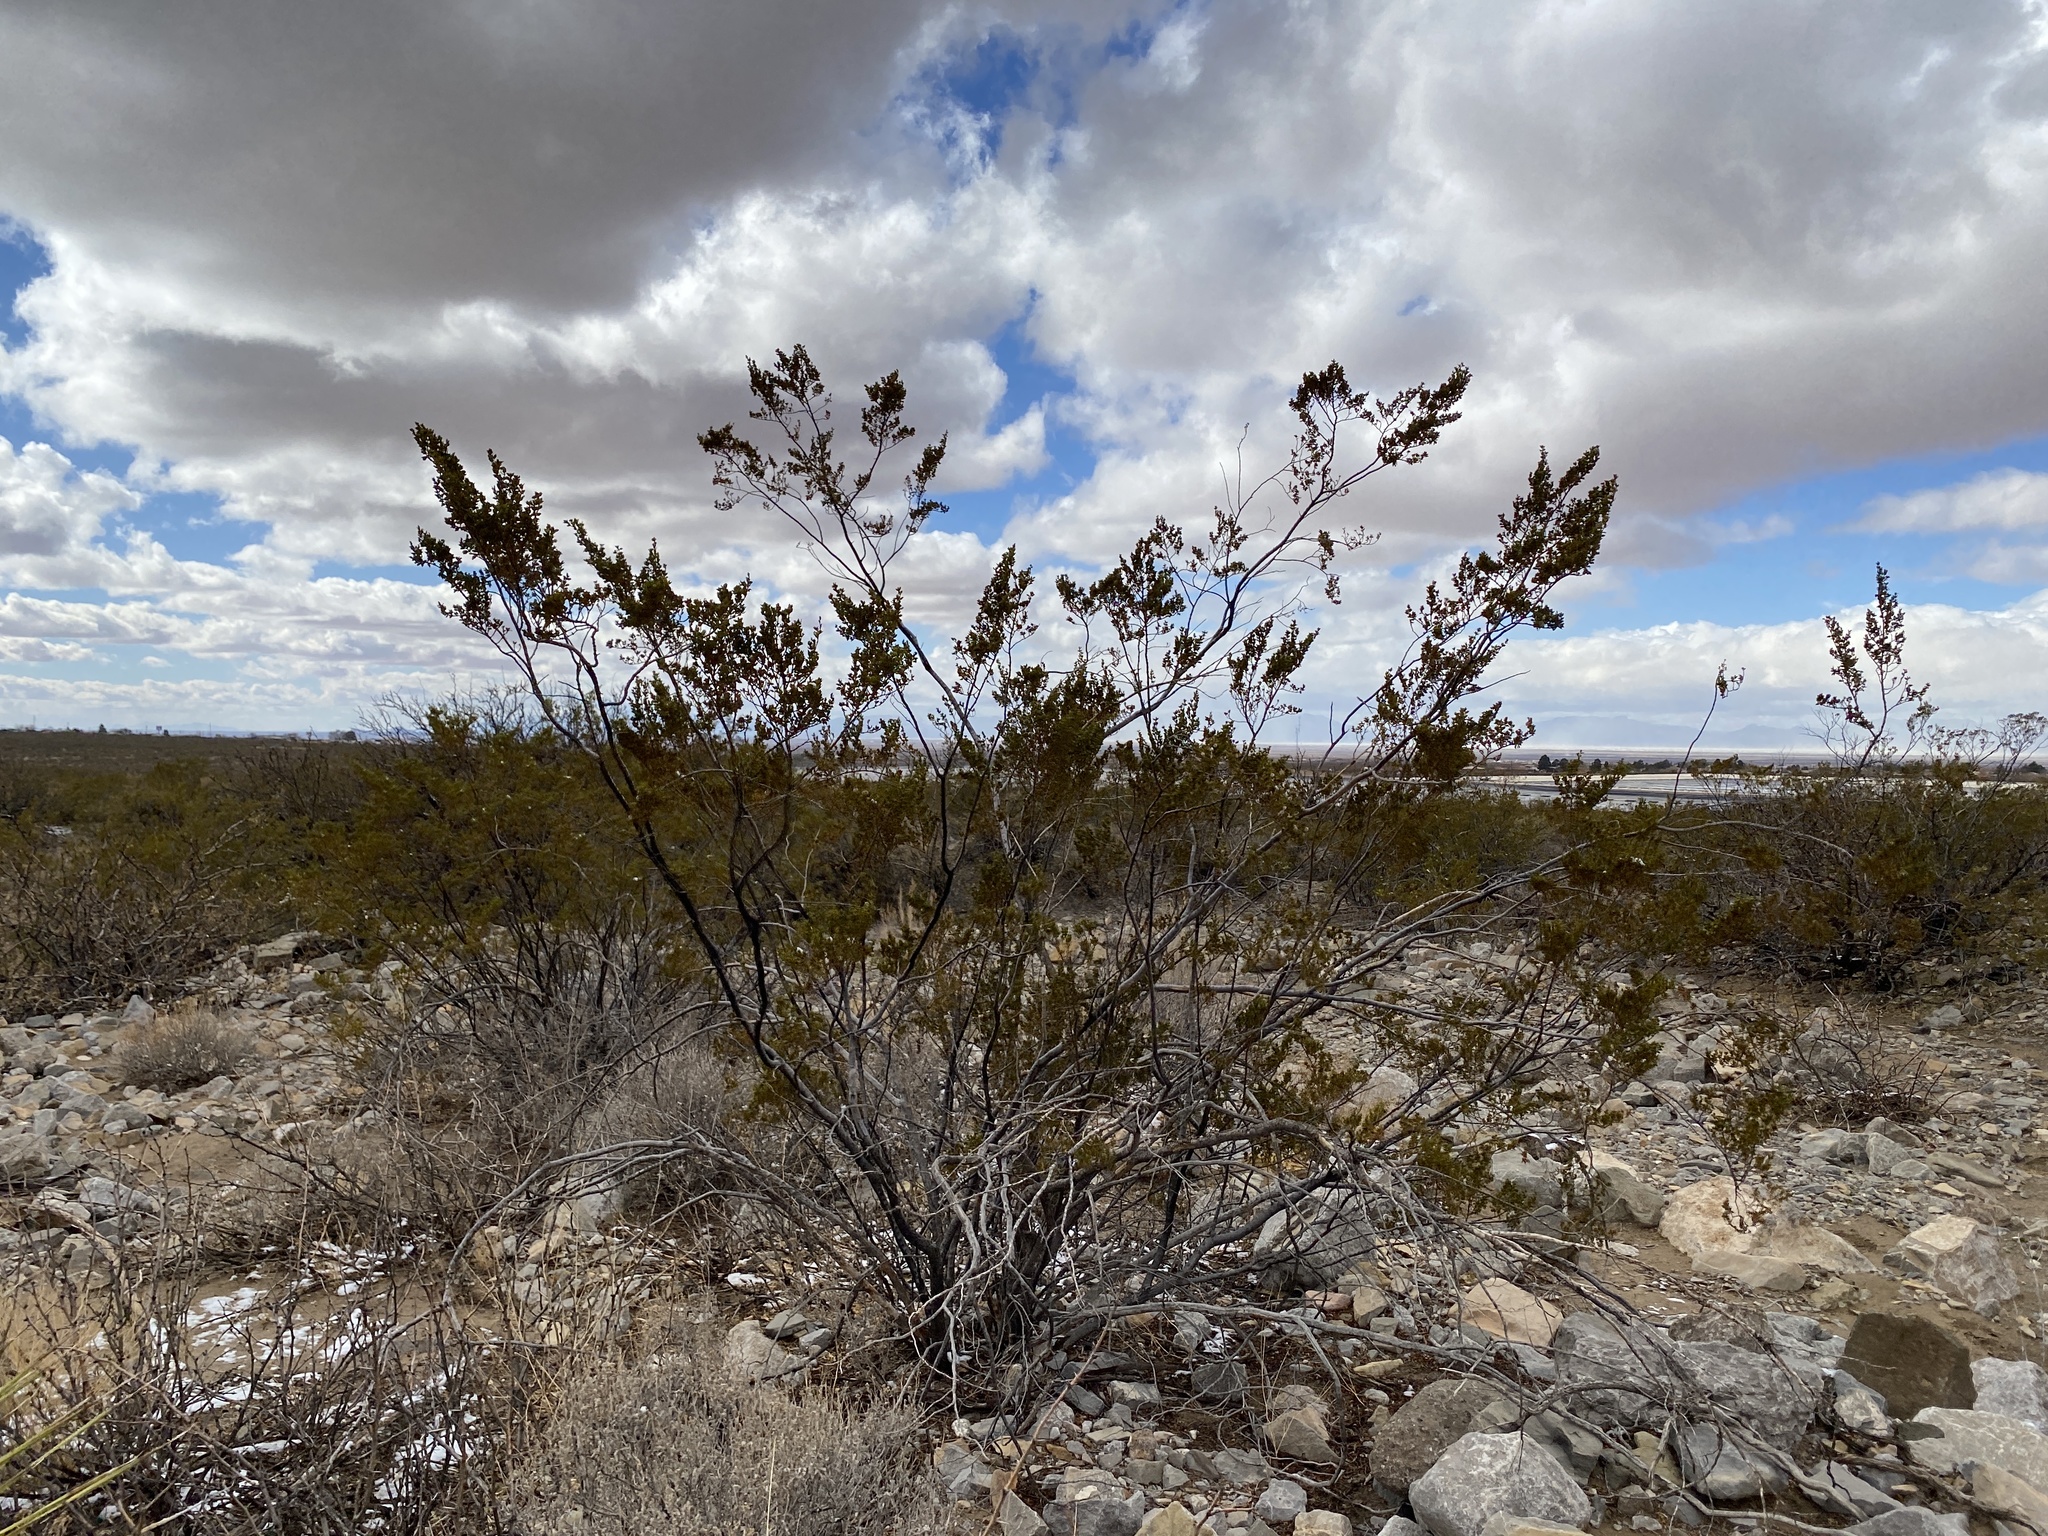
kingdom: Plantae
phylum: Tracheophyta
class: Magnoliopsida
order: Zygophyllales
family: Zygophyllaceae
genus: Larrea
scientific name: Larrea tridentata
